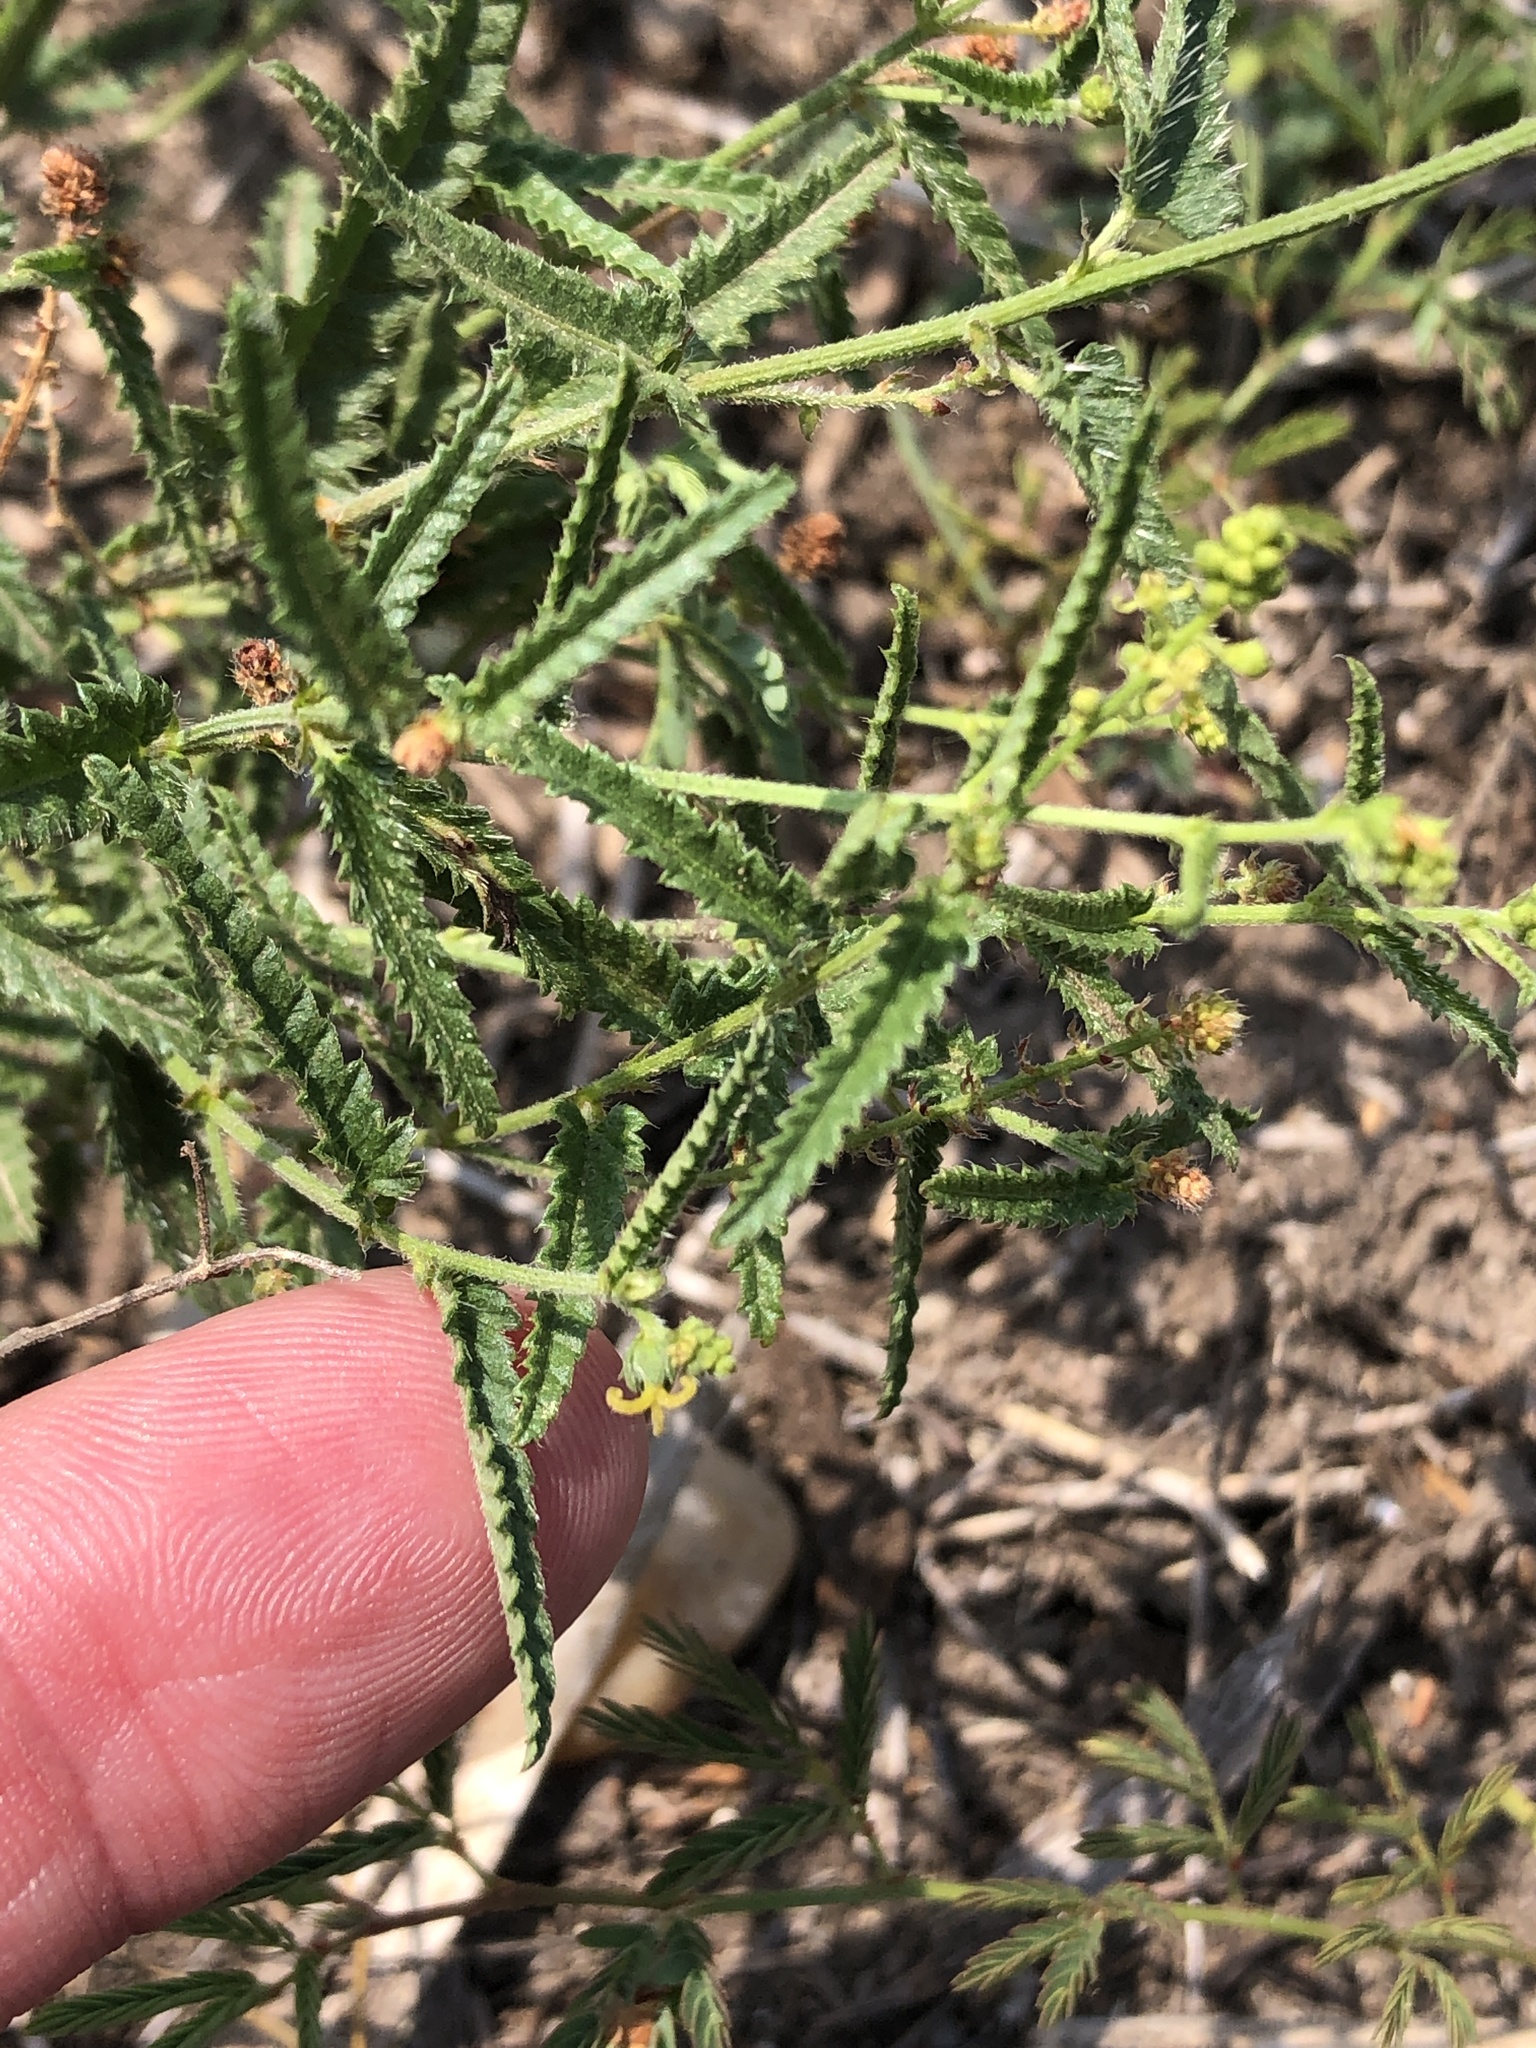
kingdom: Plantae
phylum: Tracheophyta
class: Magnoliopsida
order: Malpighiales
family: Euphorbiaceae
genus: Tragia
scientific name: Tragia ramosa
